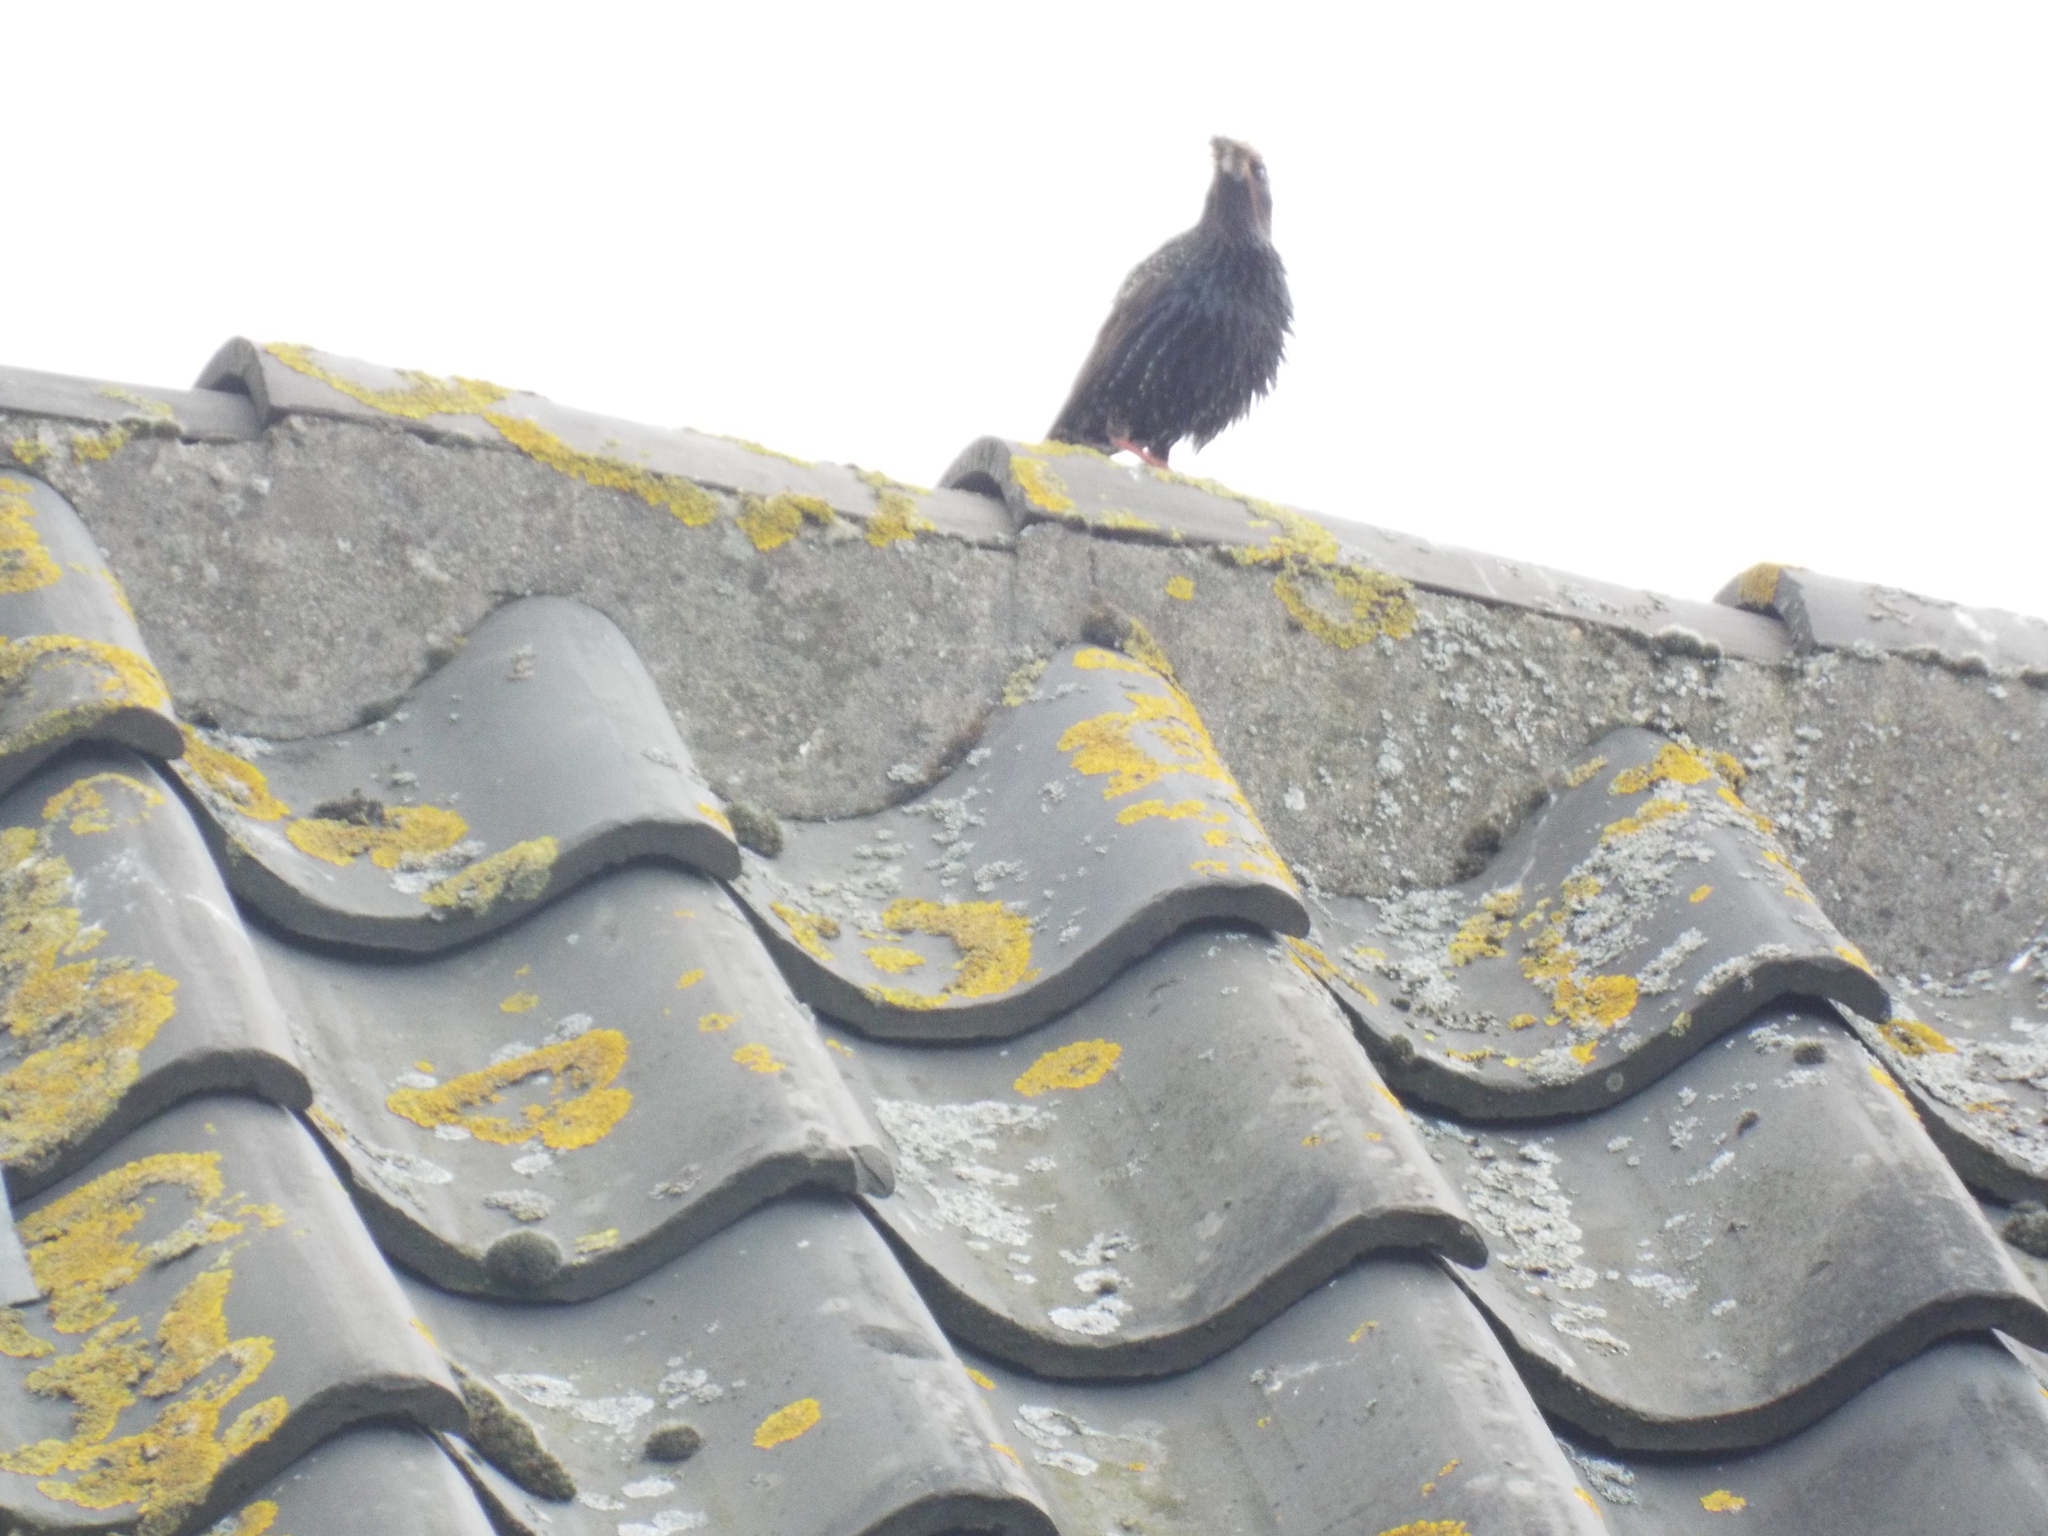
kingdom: Animalia
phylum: Chordata
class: Aves
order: Passeriformes
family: Sturnidae
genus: Sturnus
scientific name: Sturnus vulgaris
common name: Common starling
